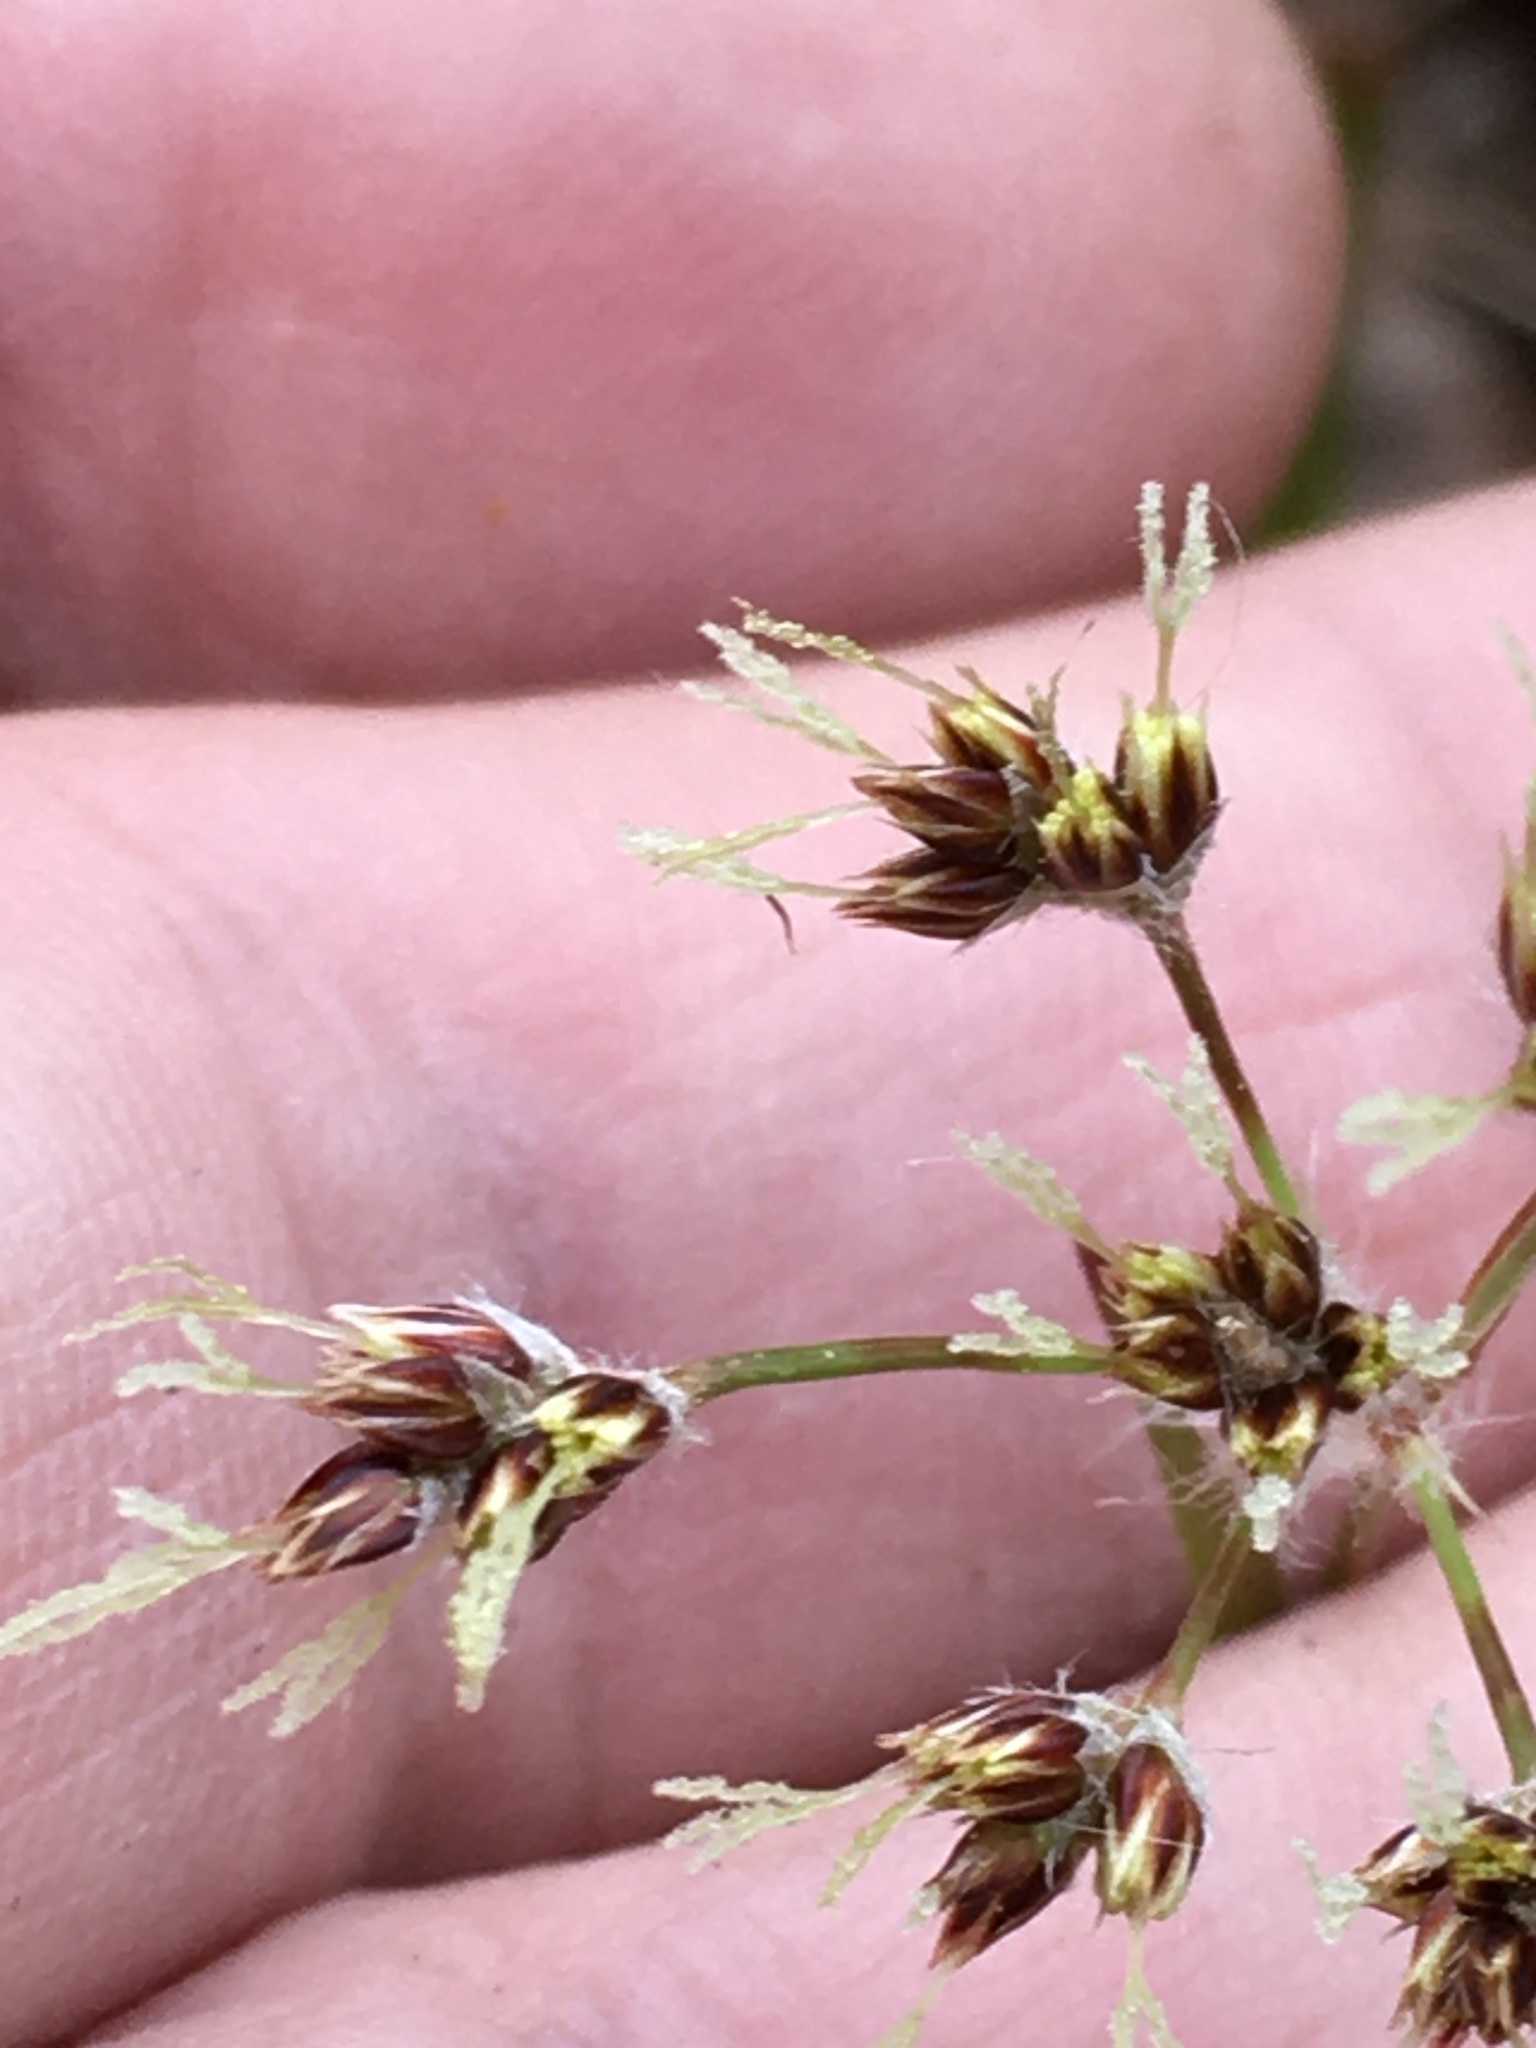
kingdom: Plantae
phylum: Tracheophyta
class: Liliopsida
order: Poales
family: Juncaceae
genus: Luzula
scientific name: Luzula echinata
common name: Hedgehog woodrush
